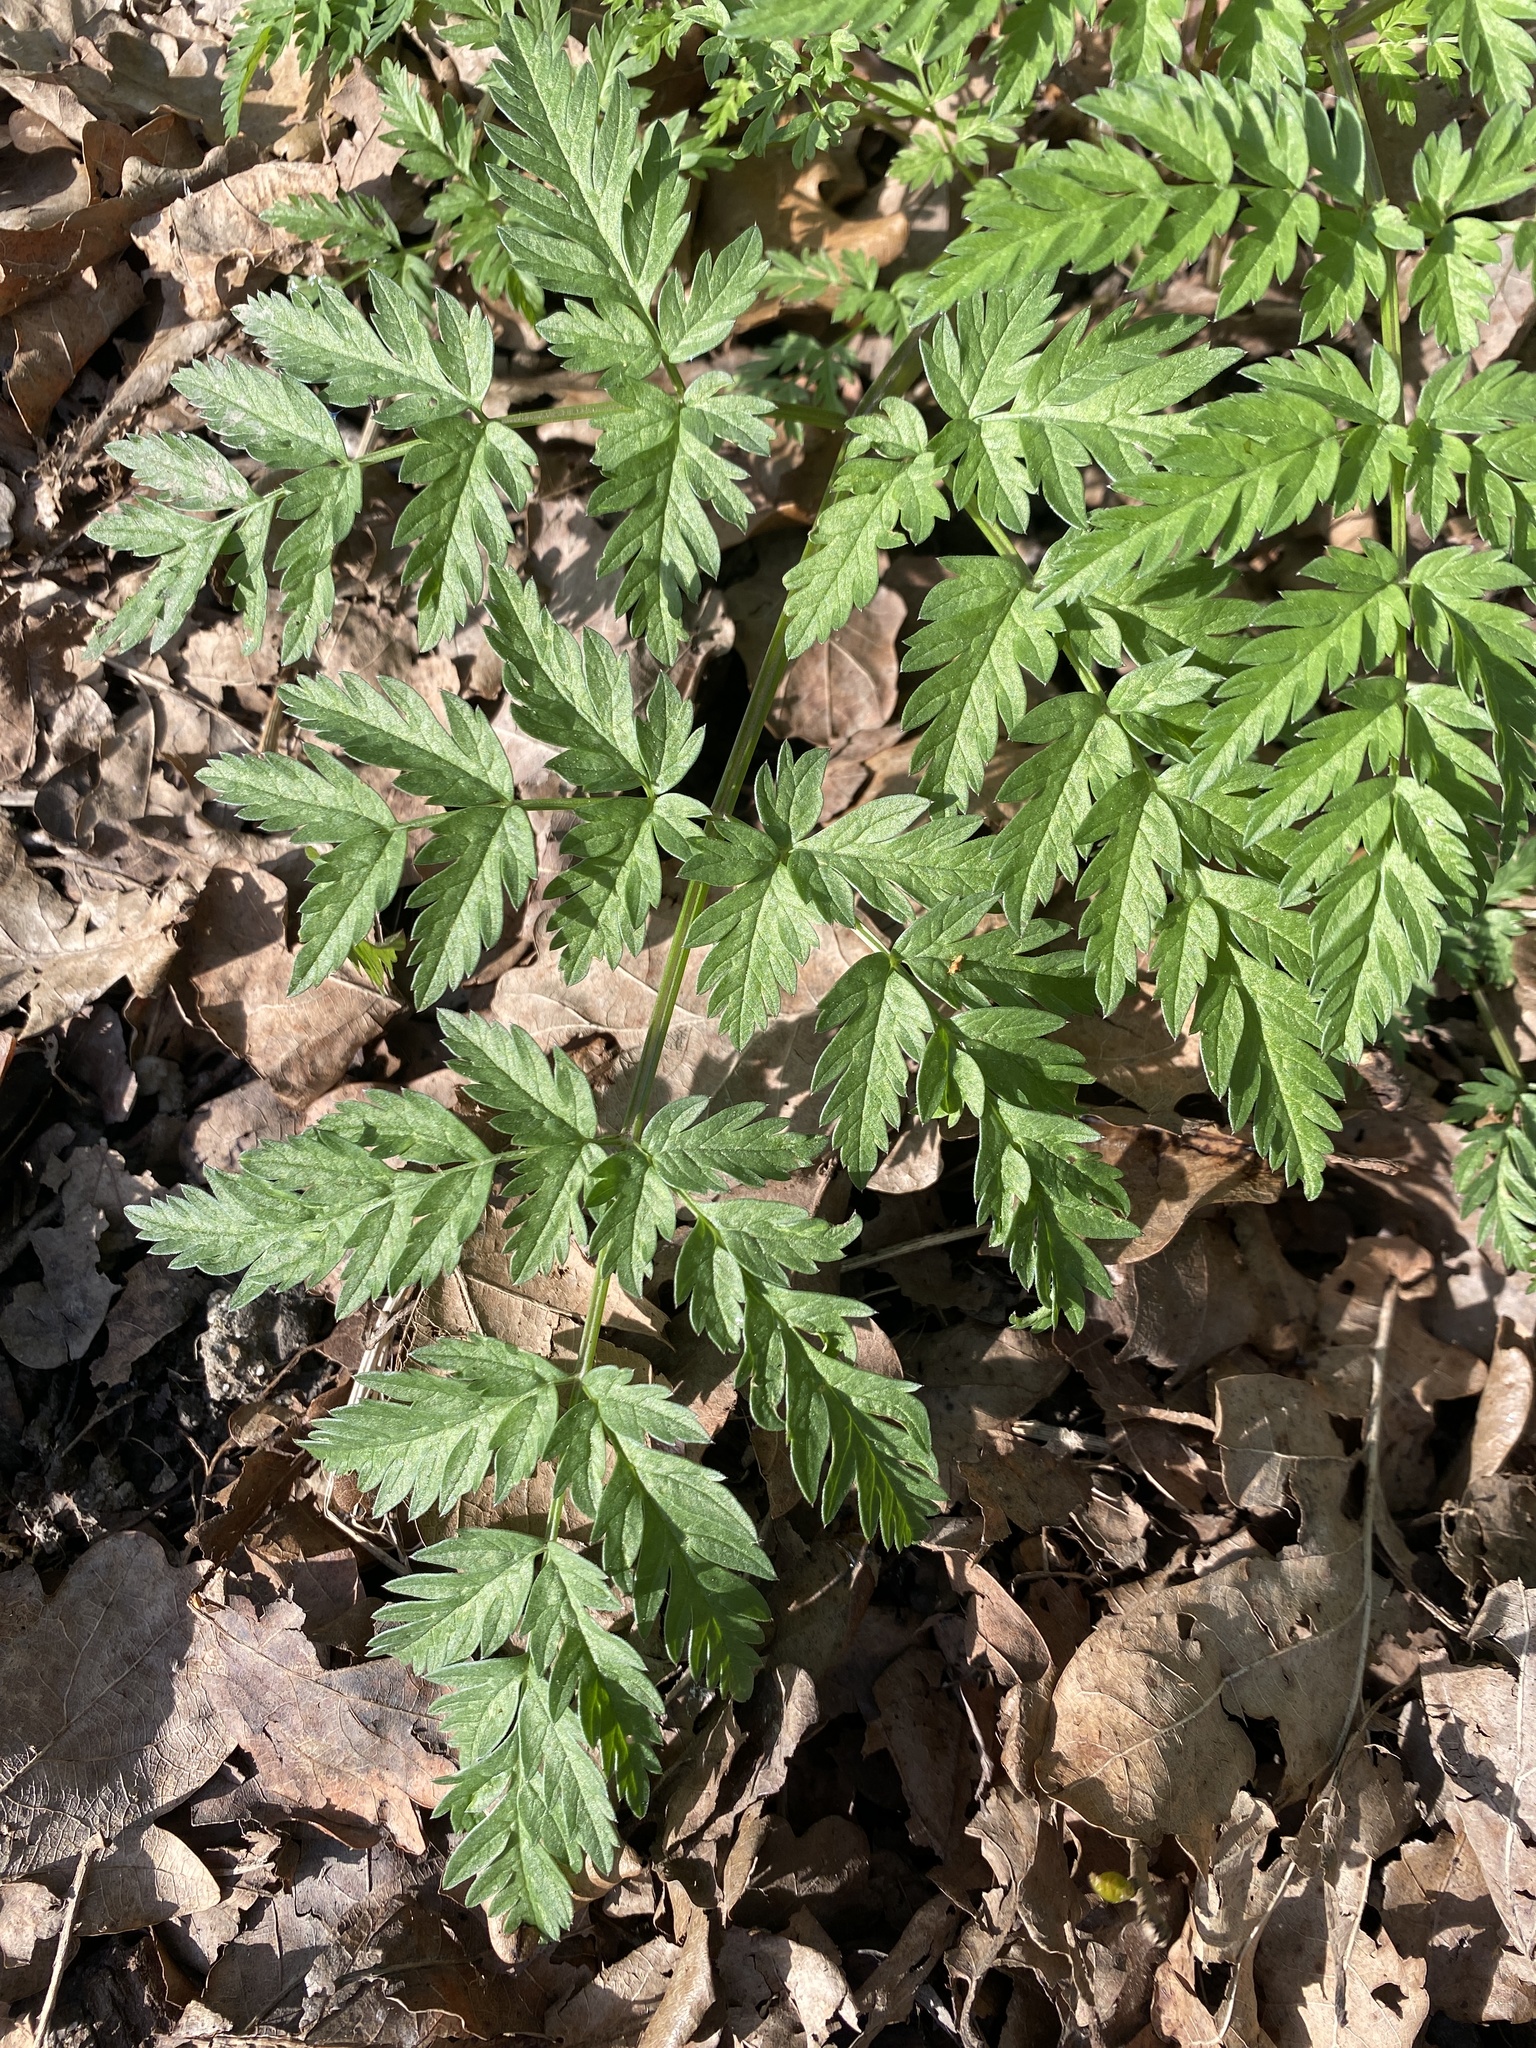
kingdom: Plantae
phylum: Tracheophyta
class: Magnoliopsida
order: Apiales
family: Apiaceae
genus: Anthriscus
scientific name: Anthriscus sylvestris
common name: Cow parsley
